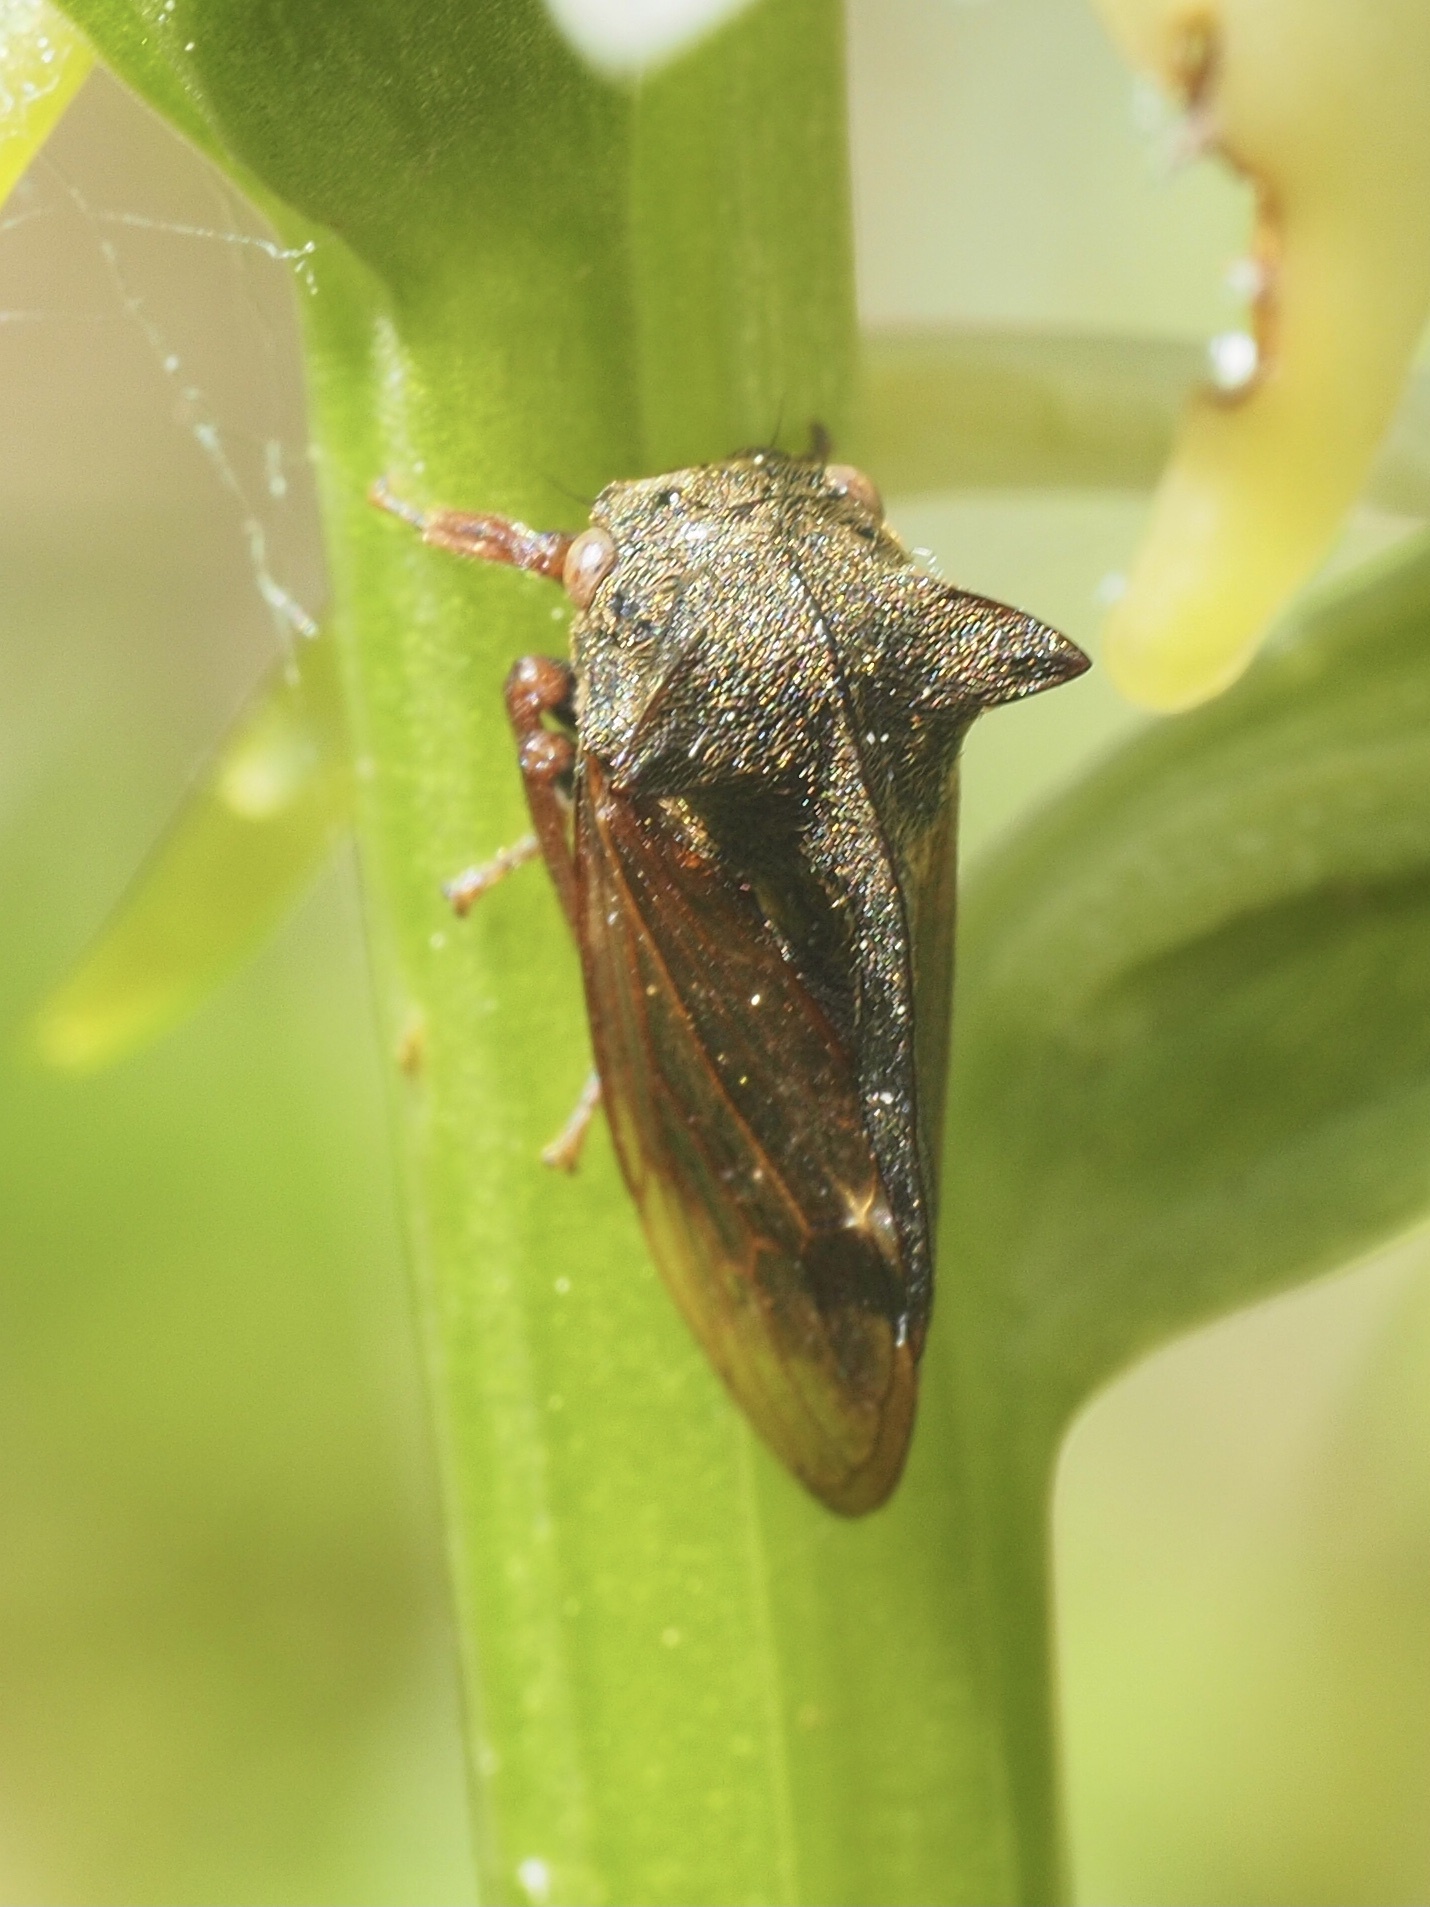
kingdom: Animalia
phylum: Arthropoda
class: Insecta
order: Hemiptera
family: Membracidae
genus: Centrotus
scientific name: Centrotus cornuta
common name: Treehopper
